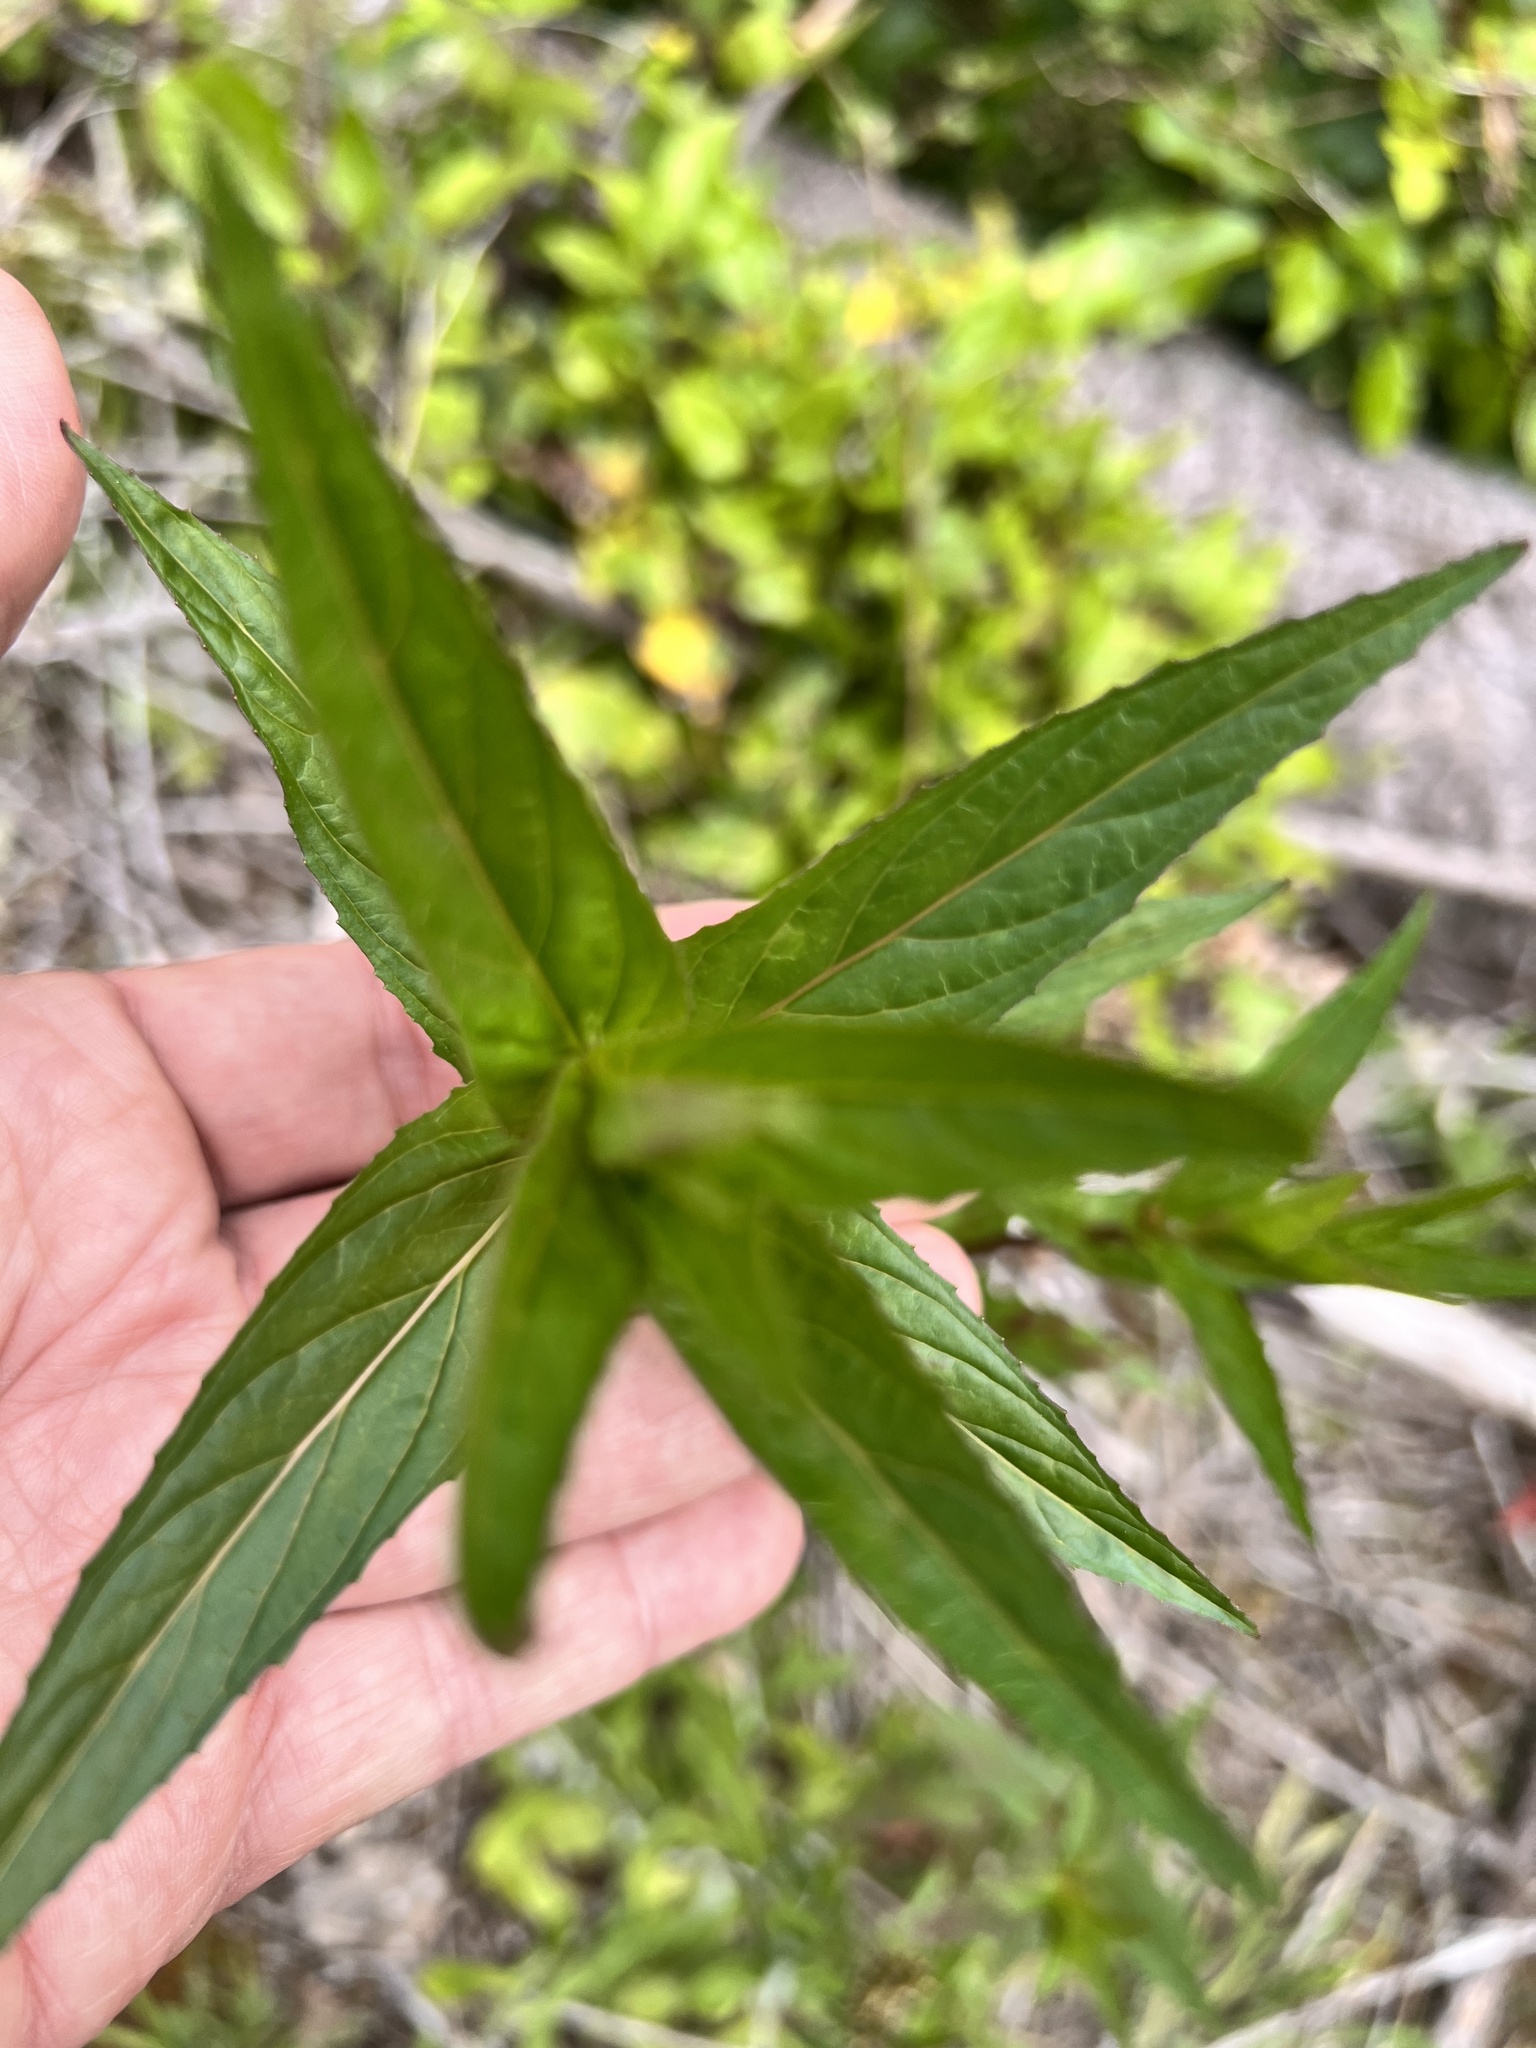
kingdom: Plantae
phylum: Tracheophyta
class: Magnoliopsida
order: Myrtales
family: Onagraceae
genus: Epilobium
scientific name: Epilobium ciliatum
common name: American willowherb
